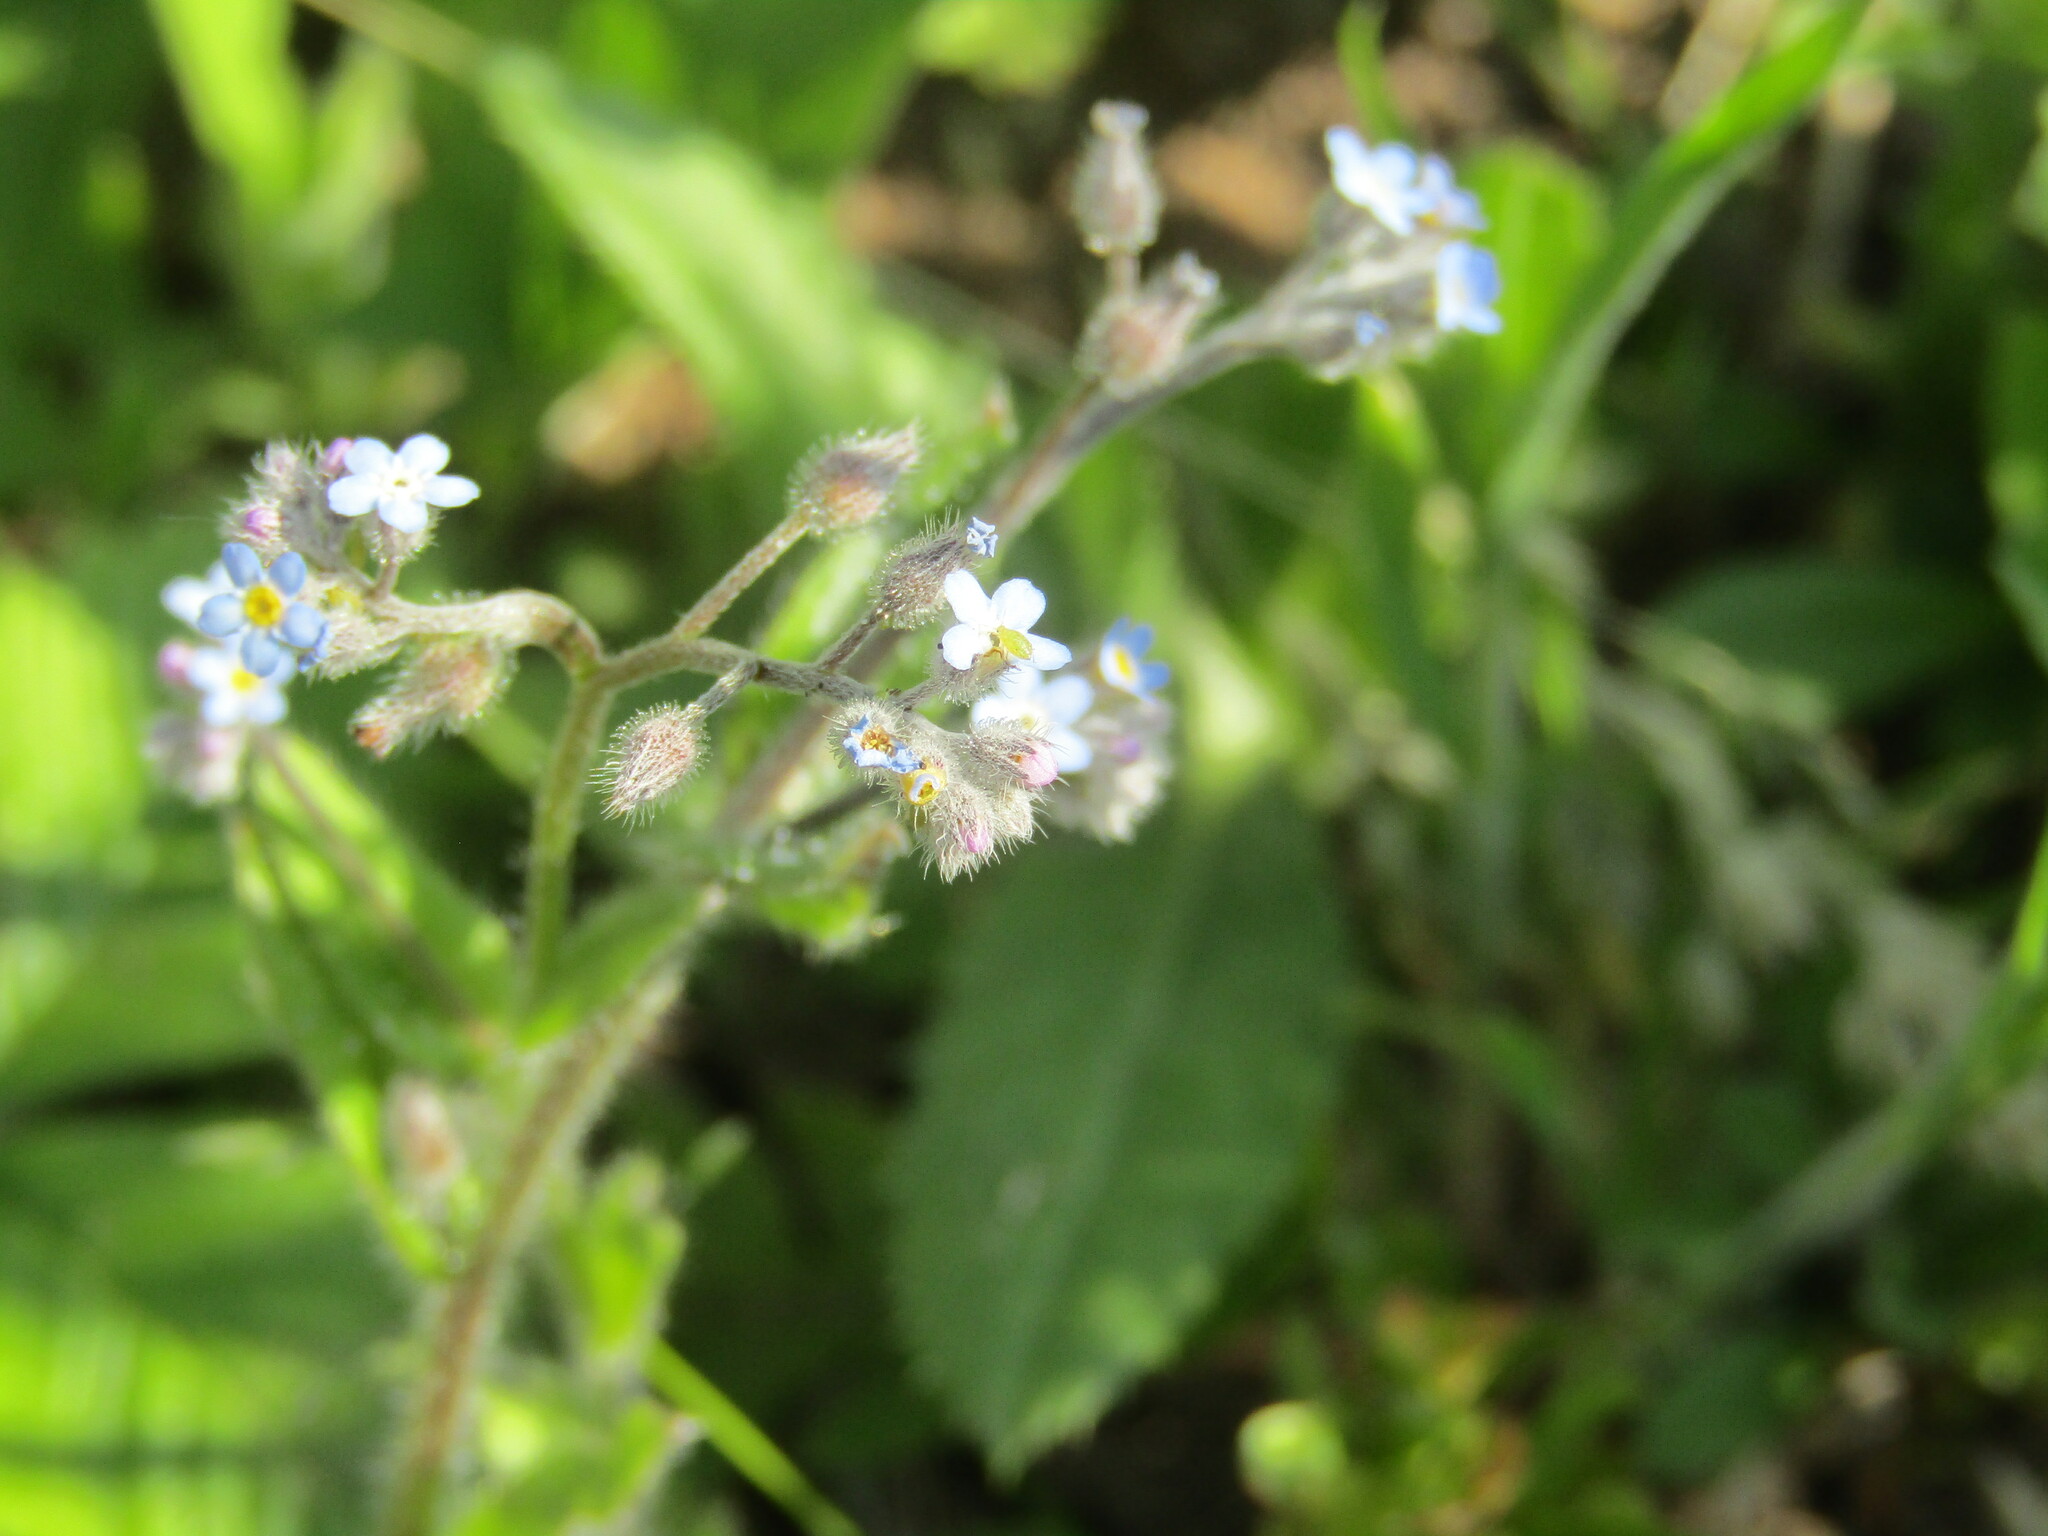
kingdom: Plantae
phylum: Tracheophyta
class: Magnoliopsida
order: Boraginales
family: Boraginaceae
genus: Myosotis
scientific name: Myosotis arvensis
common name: Field forget-me-not
